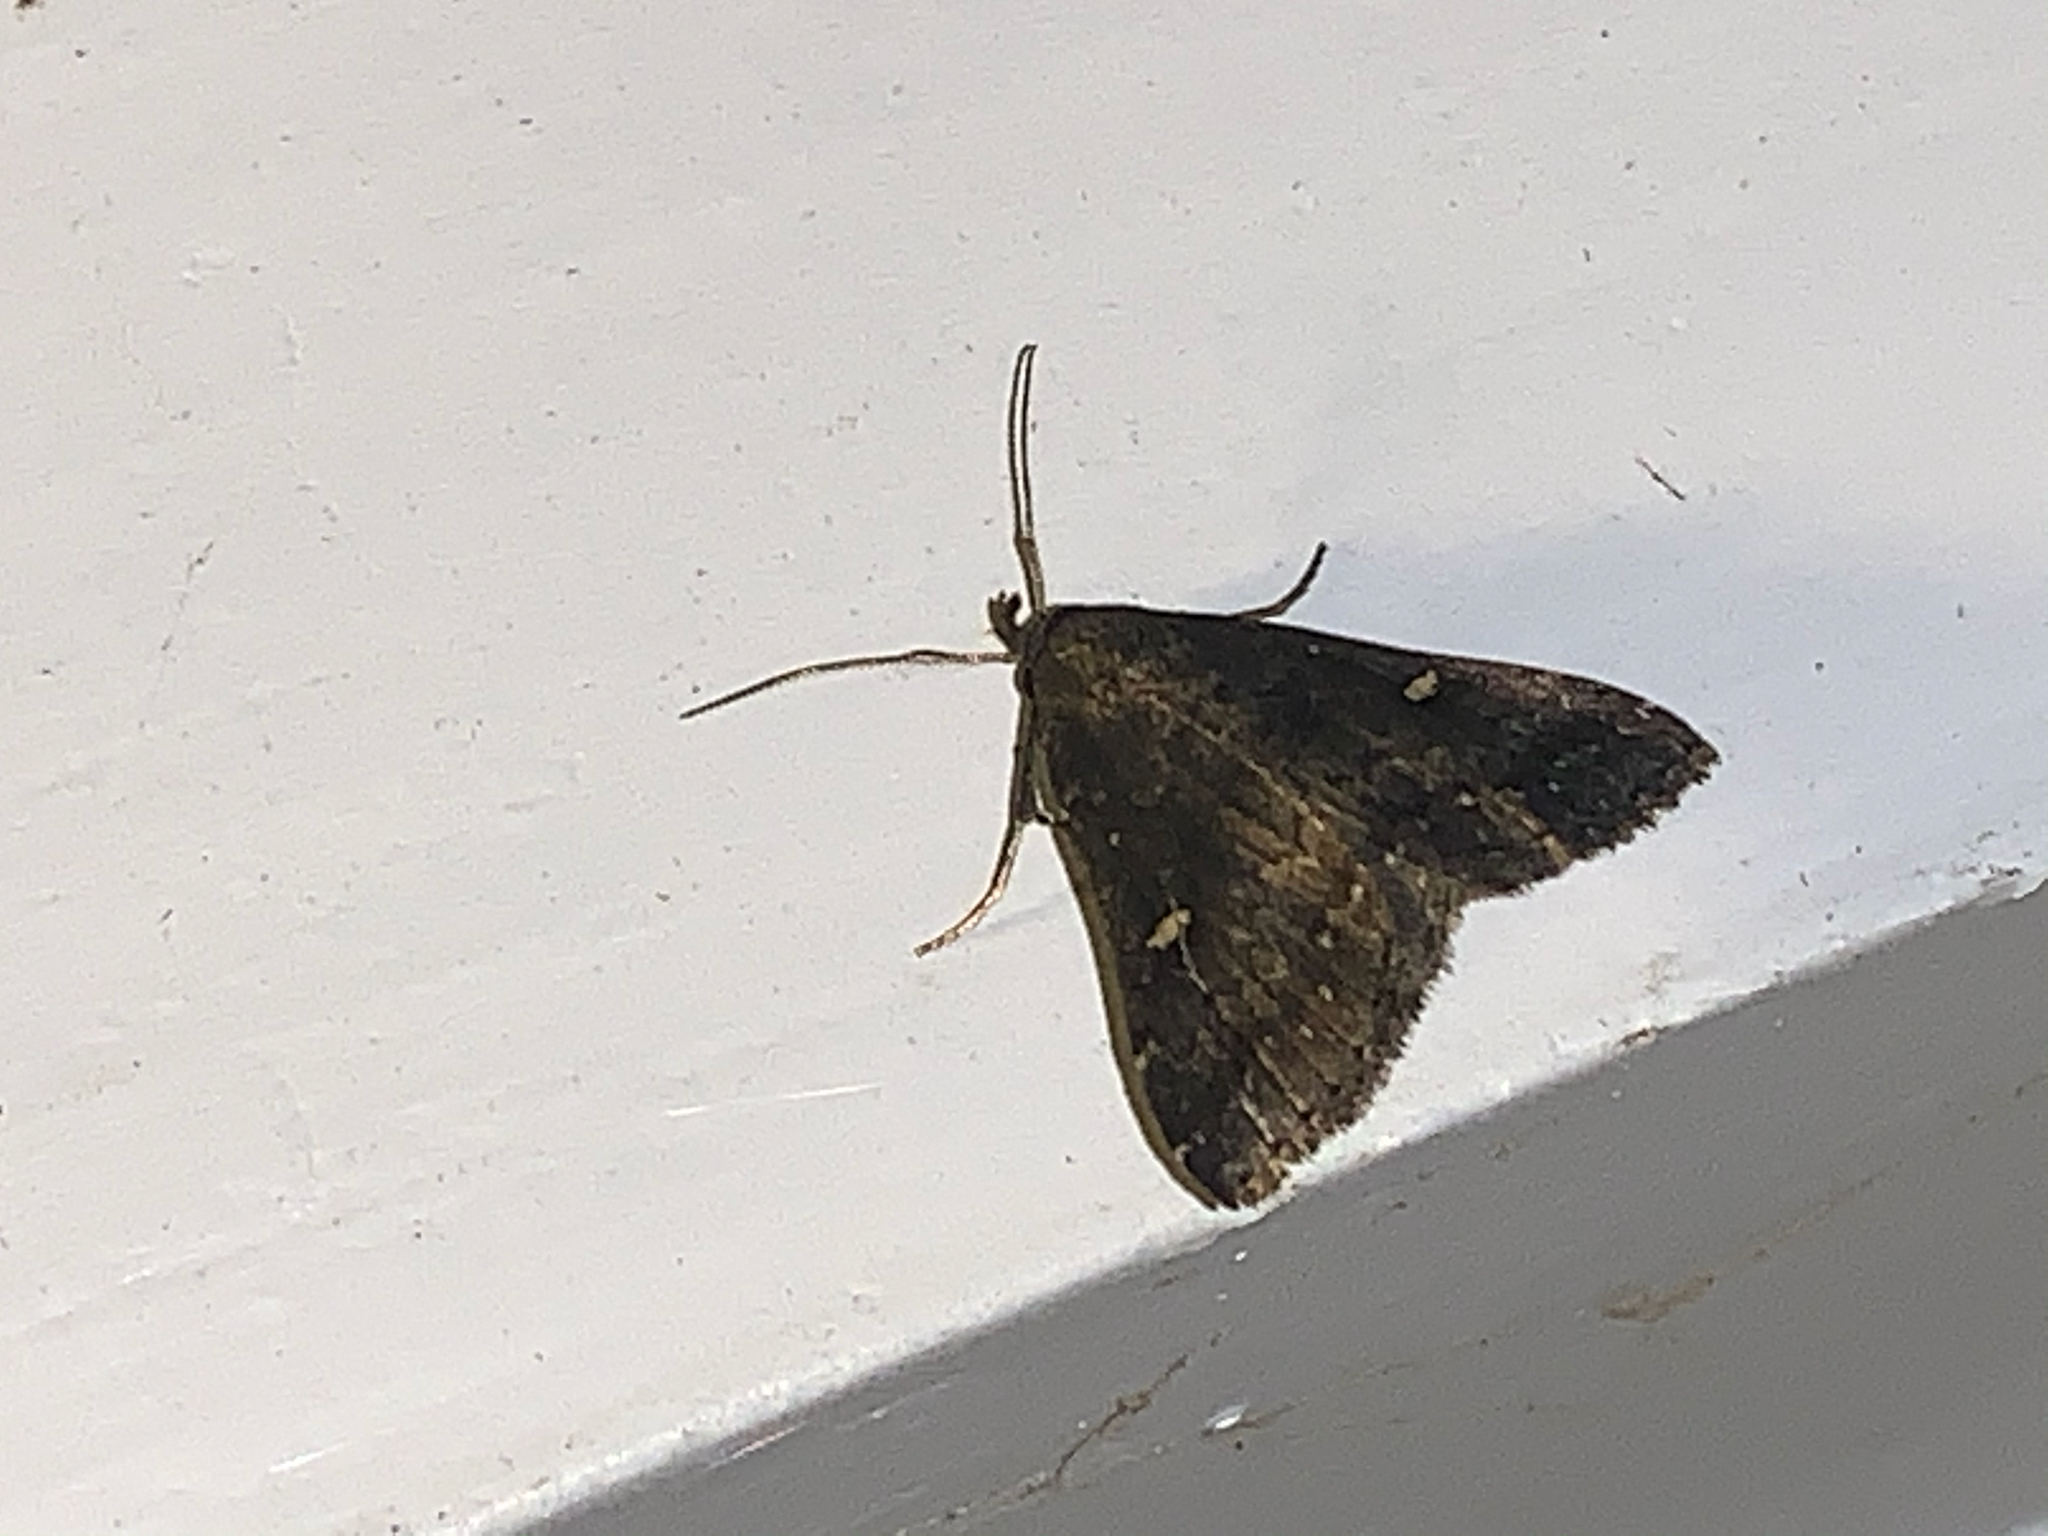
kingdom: Animalia
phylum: Arthropoda
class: Insecta
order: Lepidoptera
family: Erebidae
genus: Tetanolita
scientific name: Tetanolita mynesalis
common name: Smoky tetanolita moth
